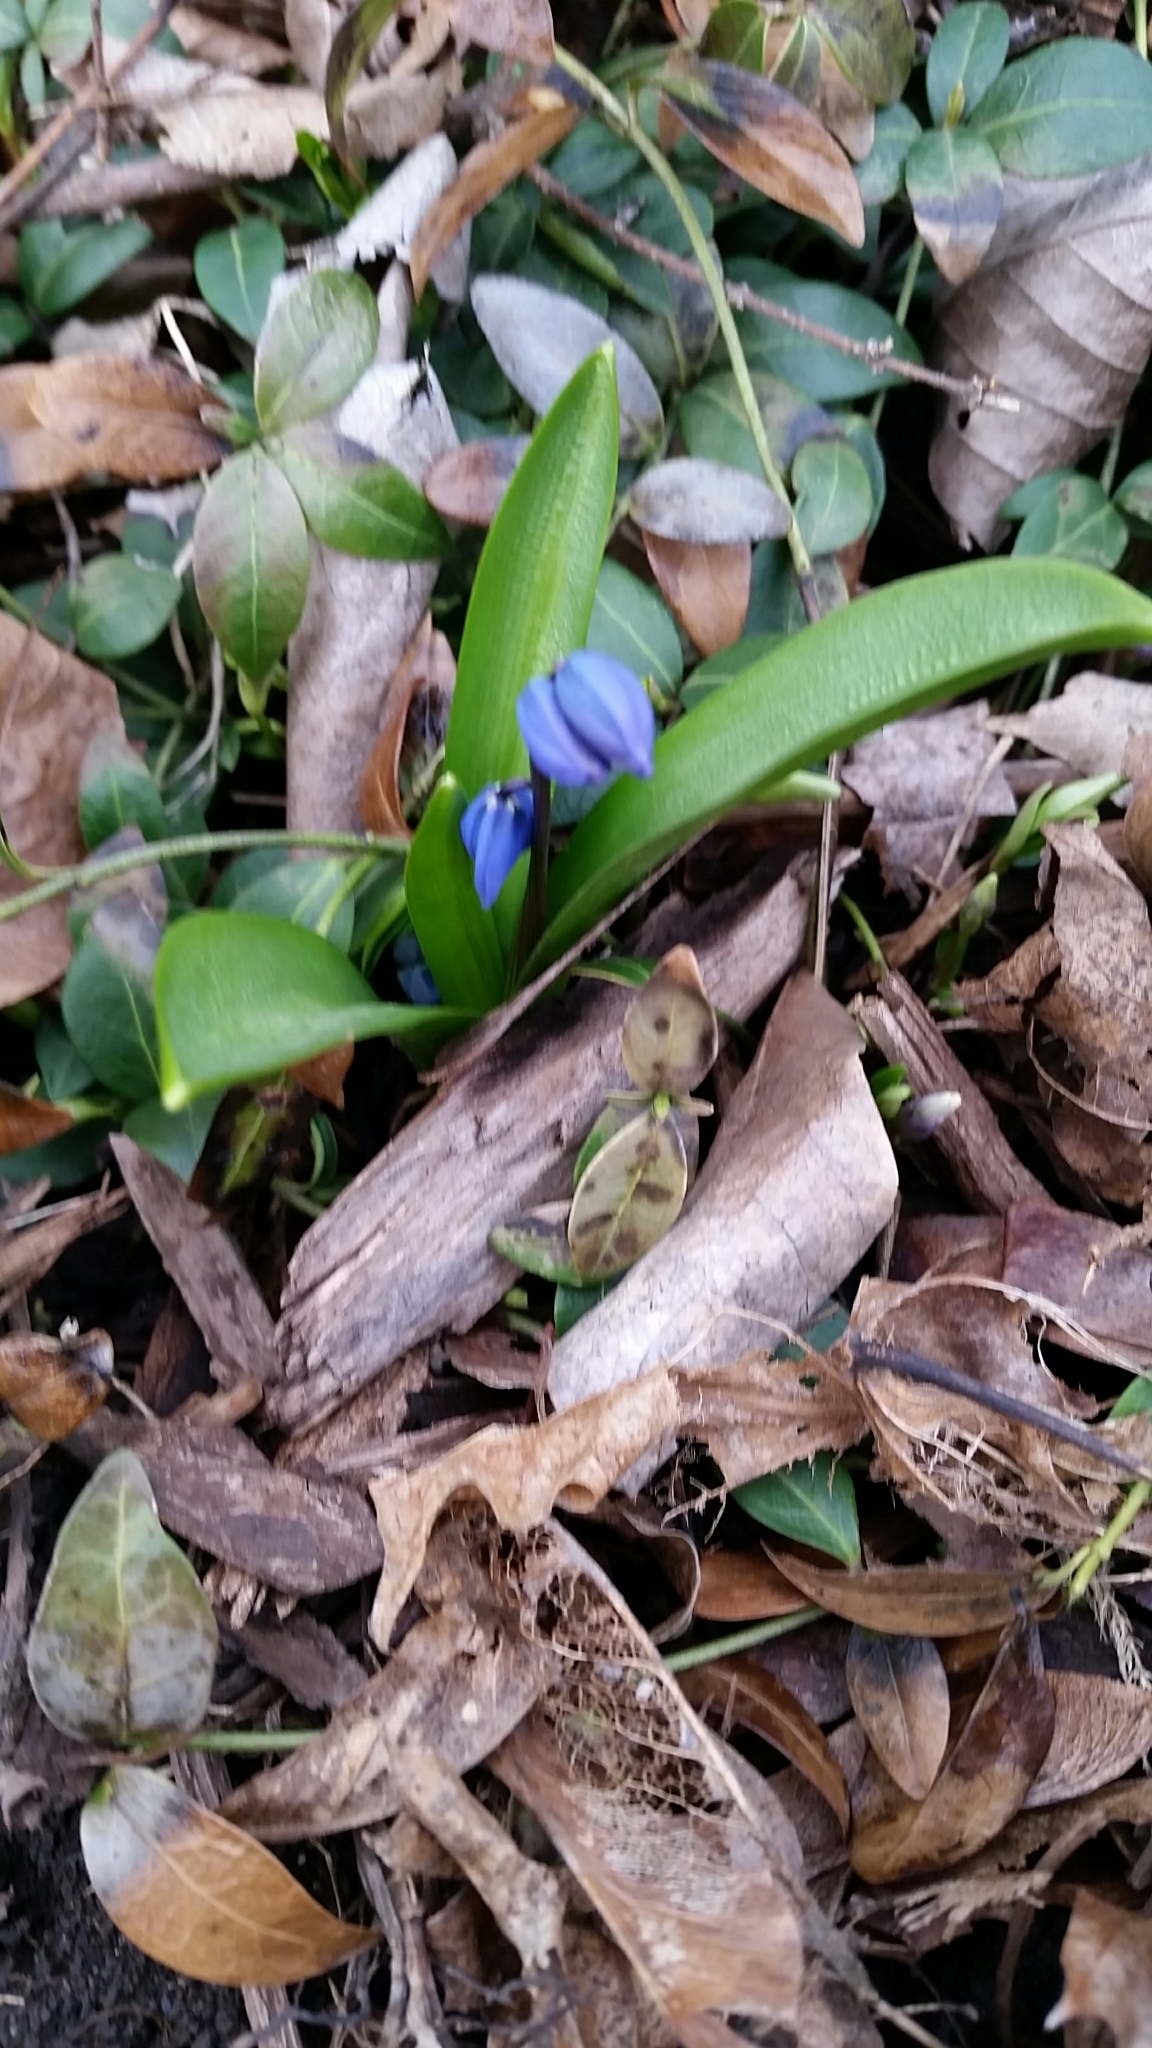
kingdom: Plantae
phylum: Tracheophyta
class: Liliopsida
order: Asparagales
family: Asparagaceae
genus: Scilla
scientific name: Scilla siberica
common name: Siberian squill
